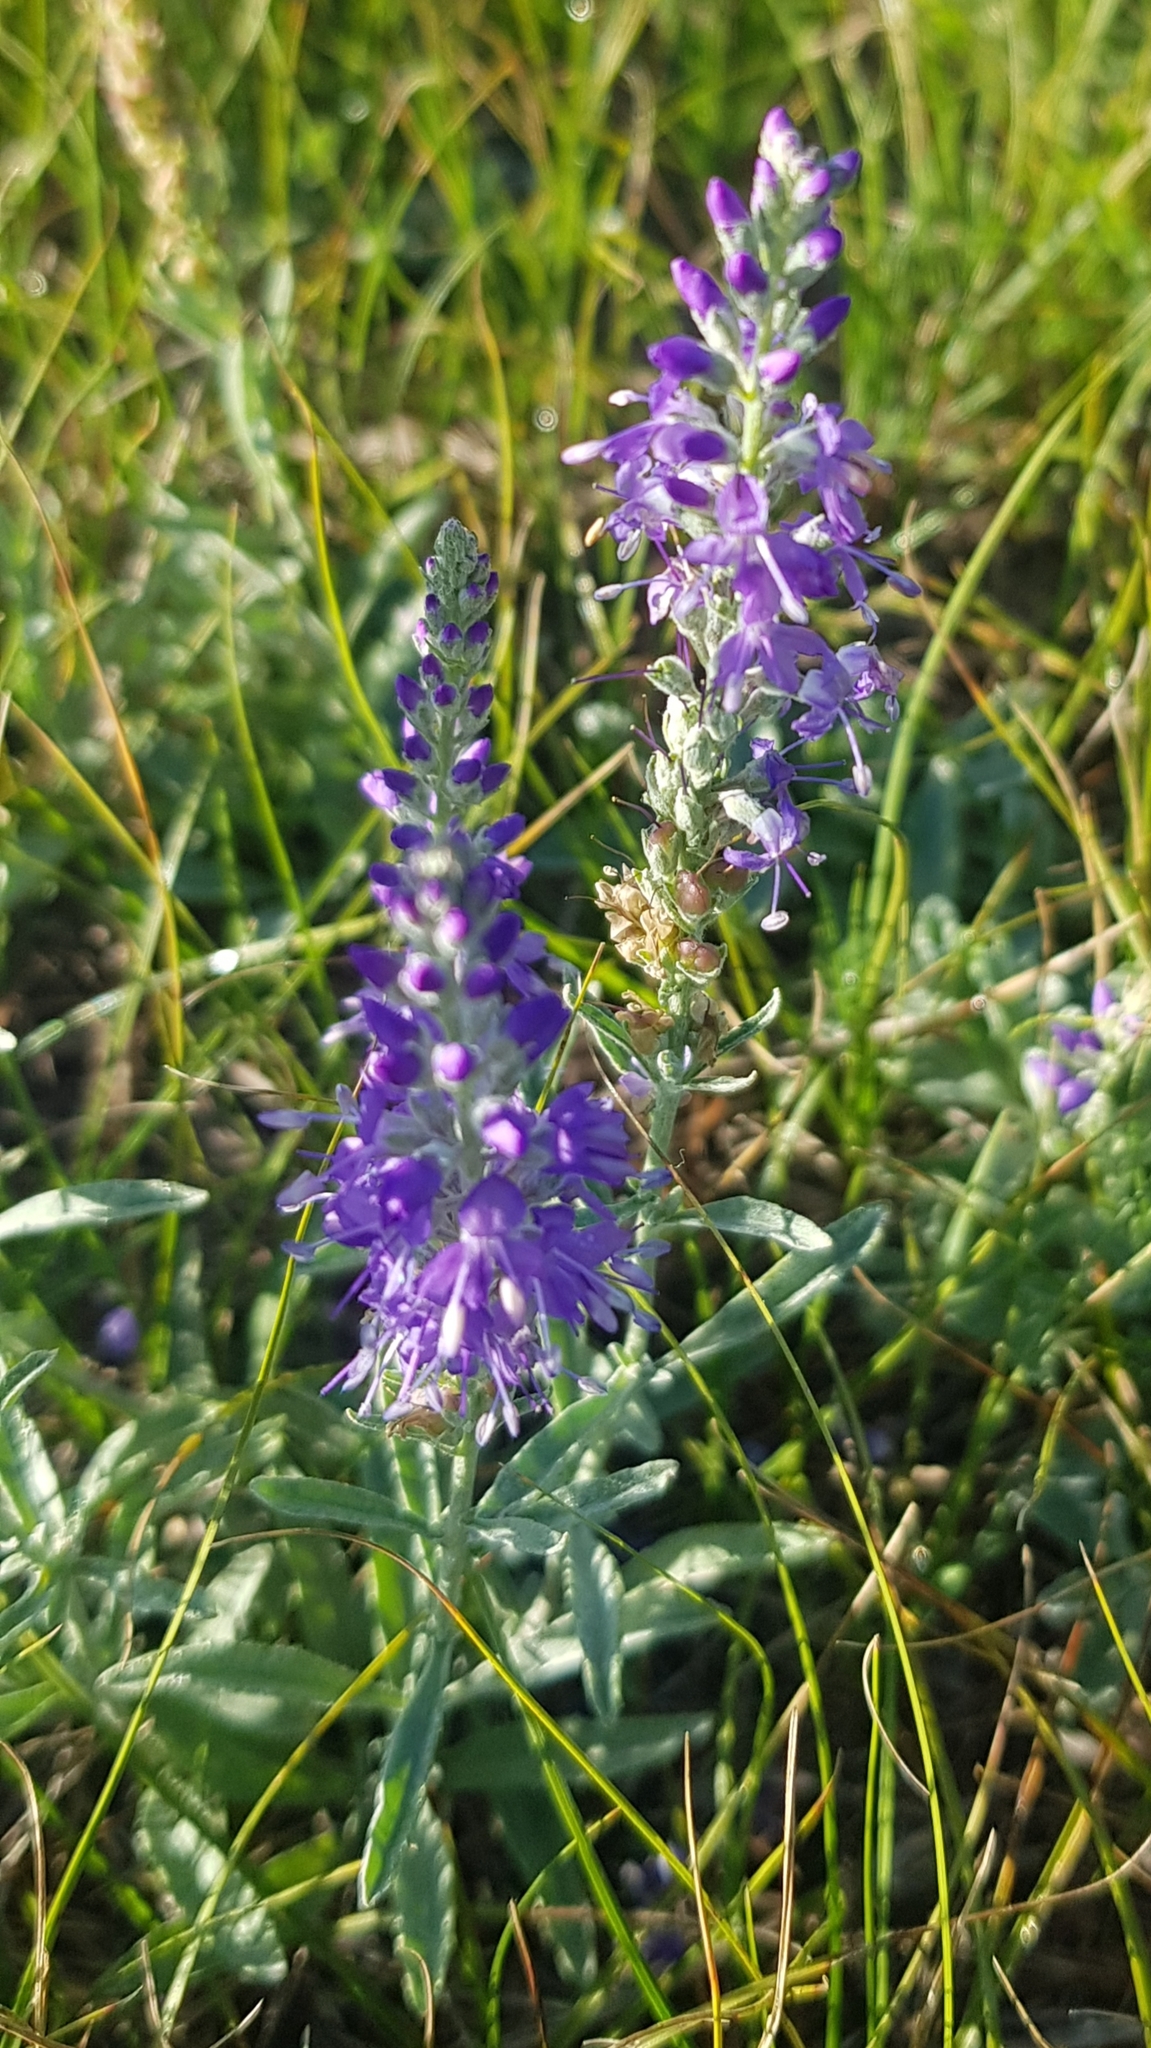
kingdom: Plantae
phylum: Tracheophyta
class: Magnoliopsida
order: Lamiales
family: Plantaginaceae
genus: Veronica
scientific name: Veronica incana
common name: Silver speedwell
